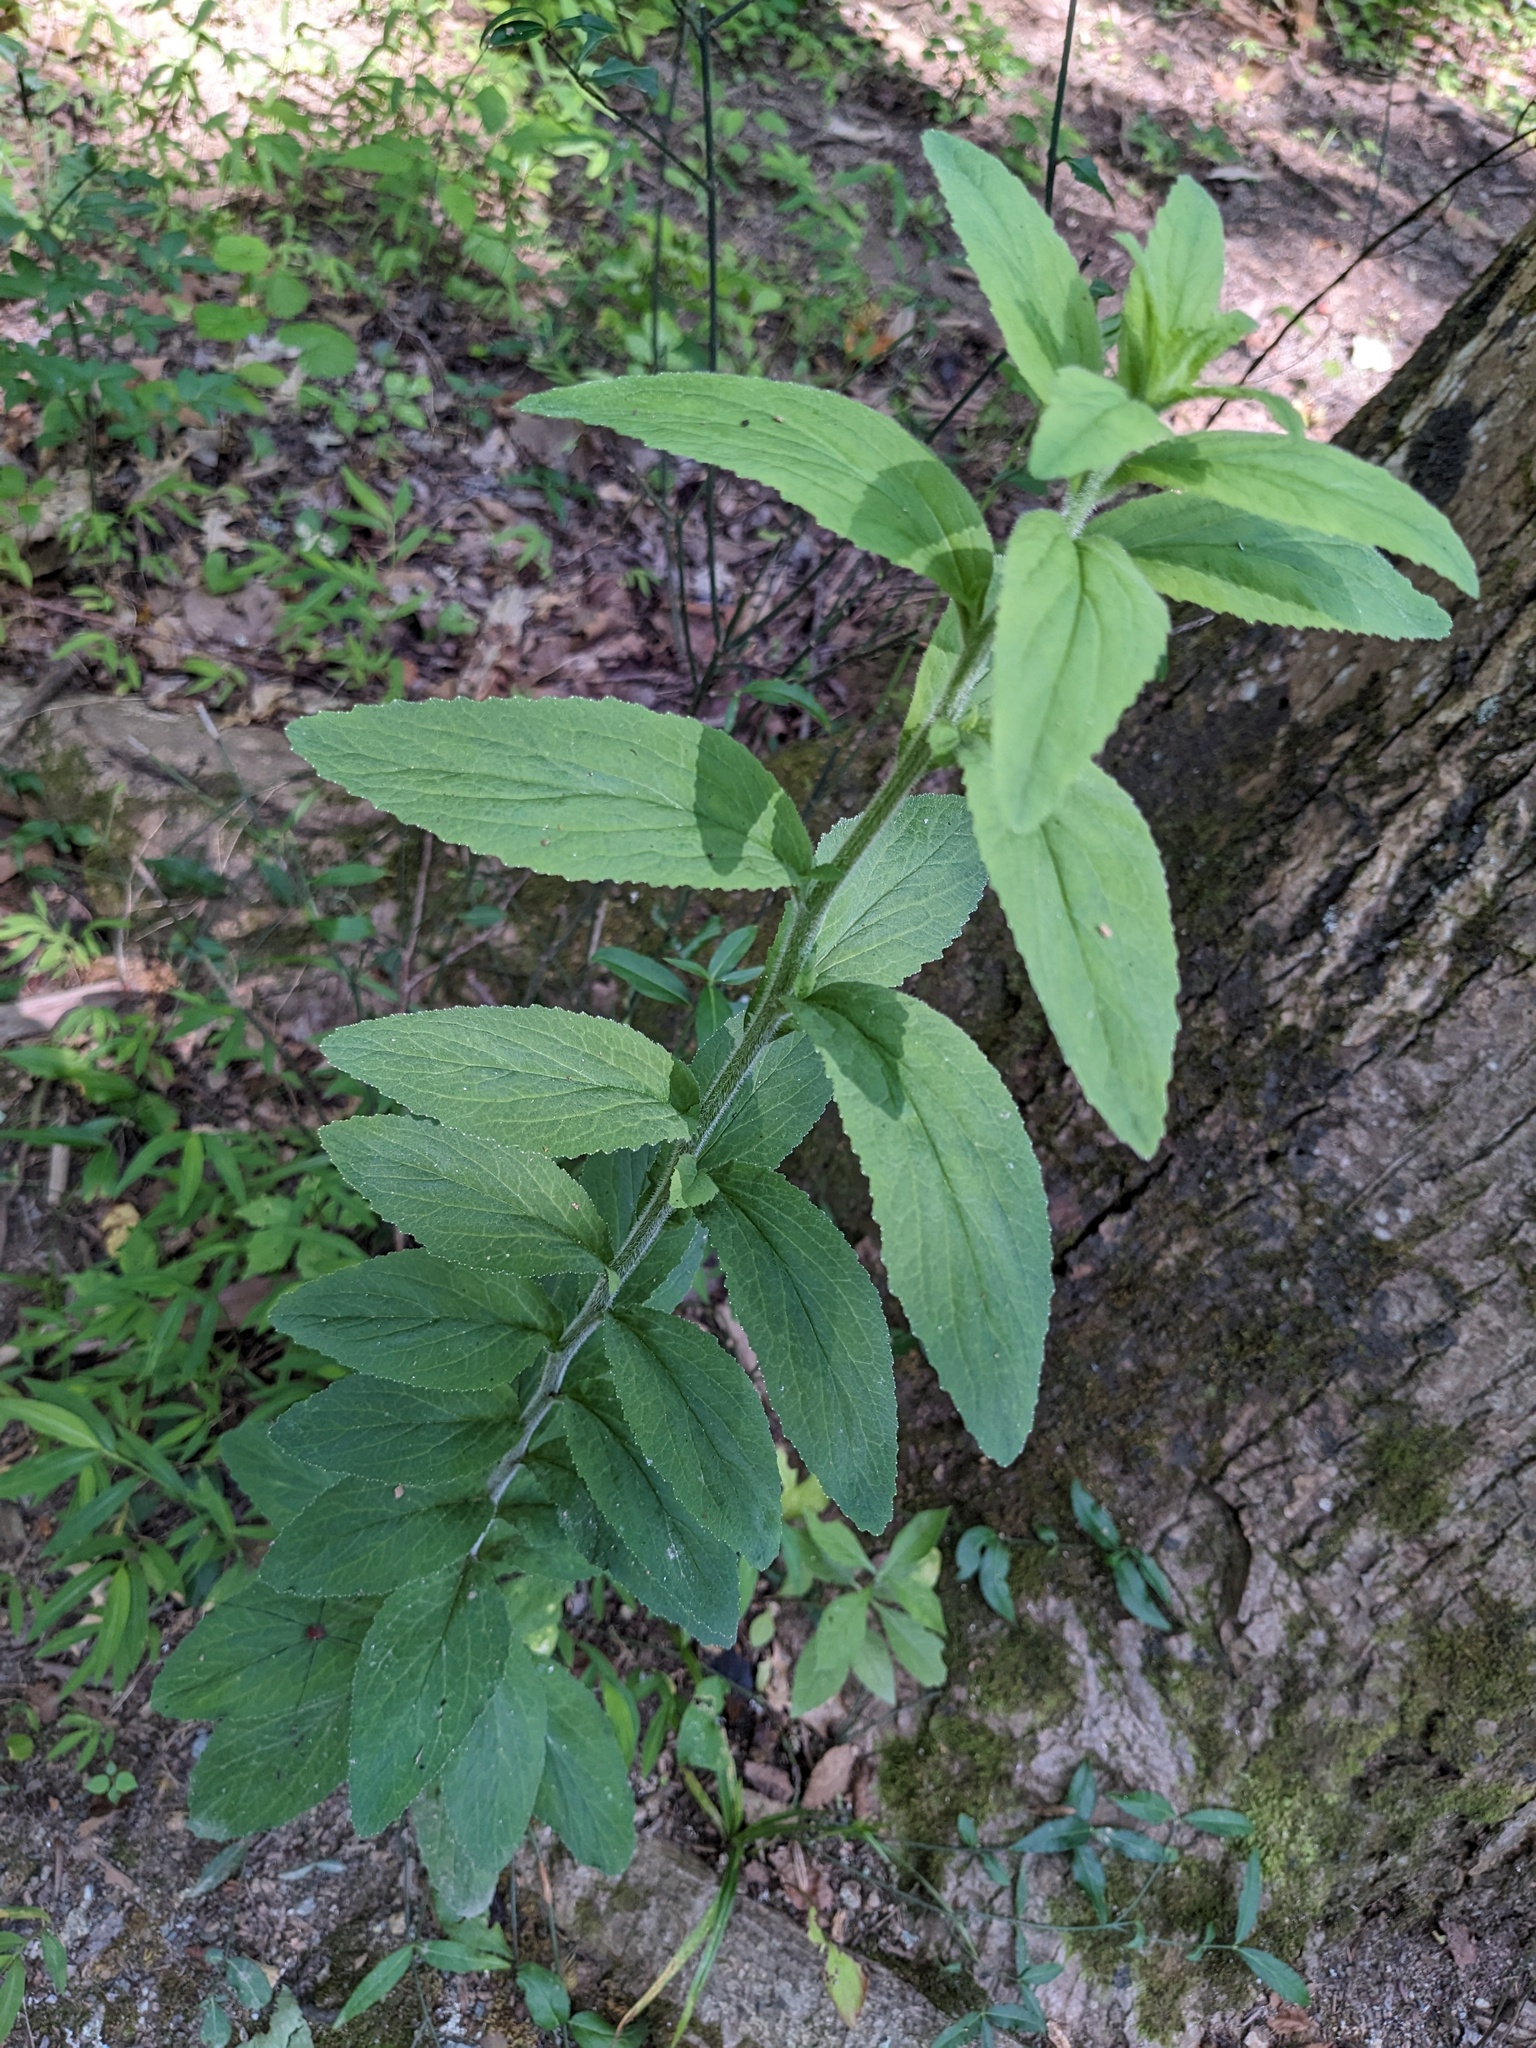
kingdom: Plantae
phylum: Tracheophyta
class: Magnoliopsida
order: Asterales
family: Campanulaceae
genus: Lobelia
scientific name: Lobelia inflata
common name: Indian tobacco
